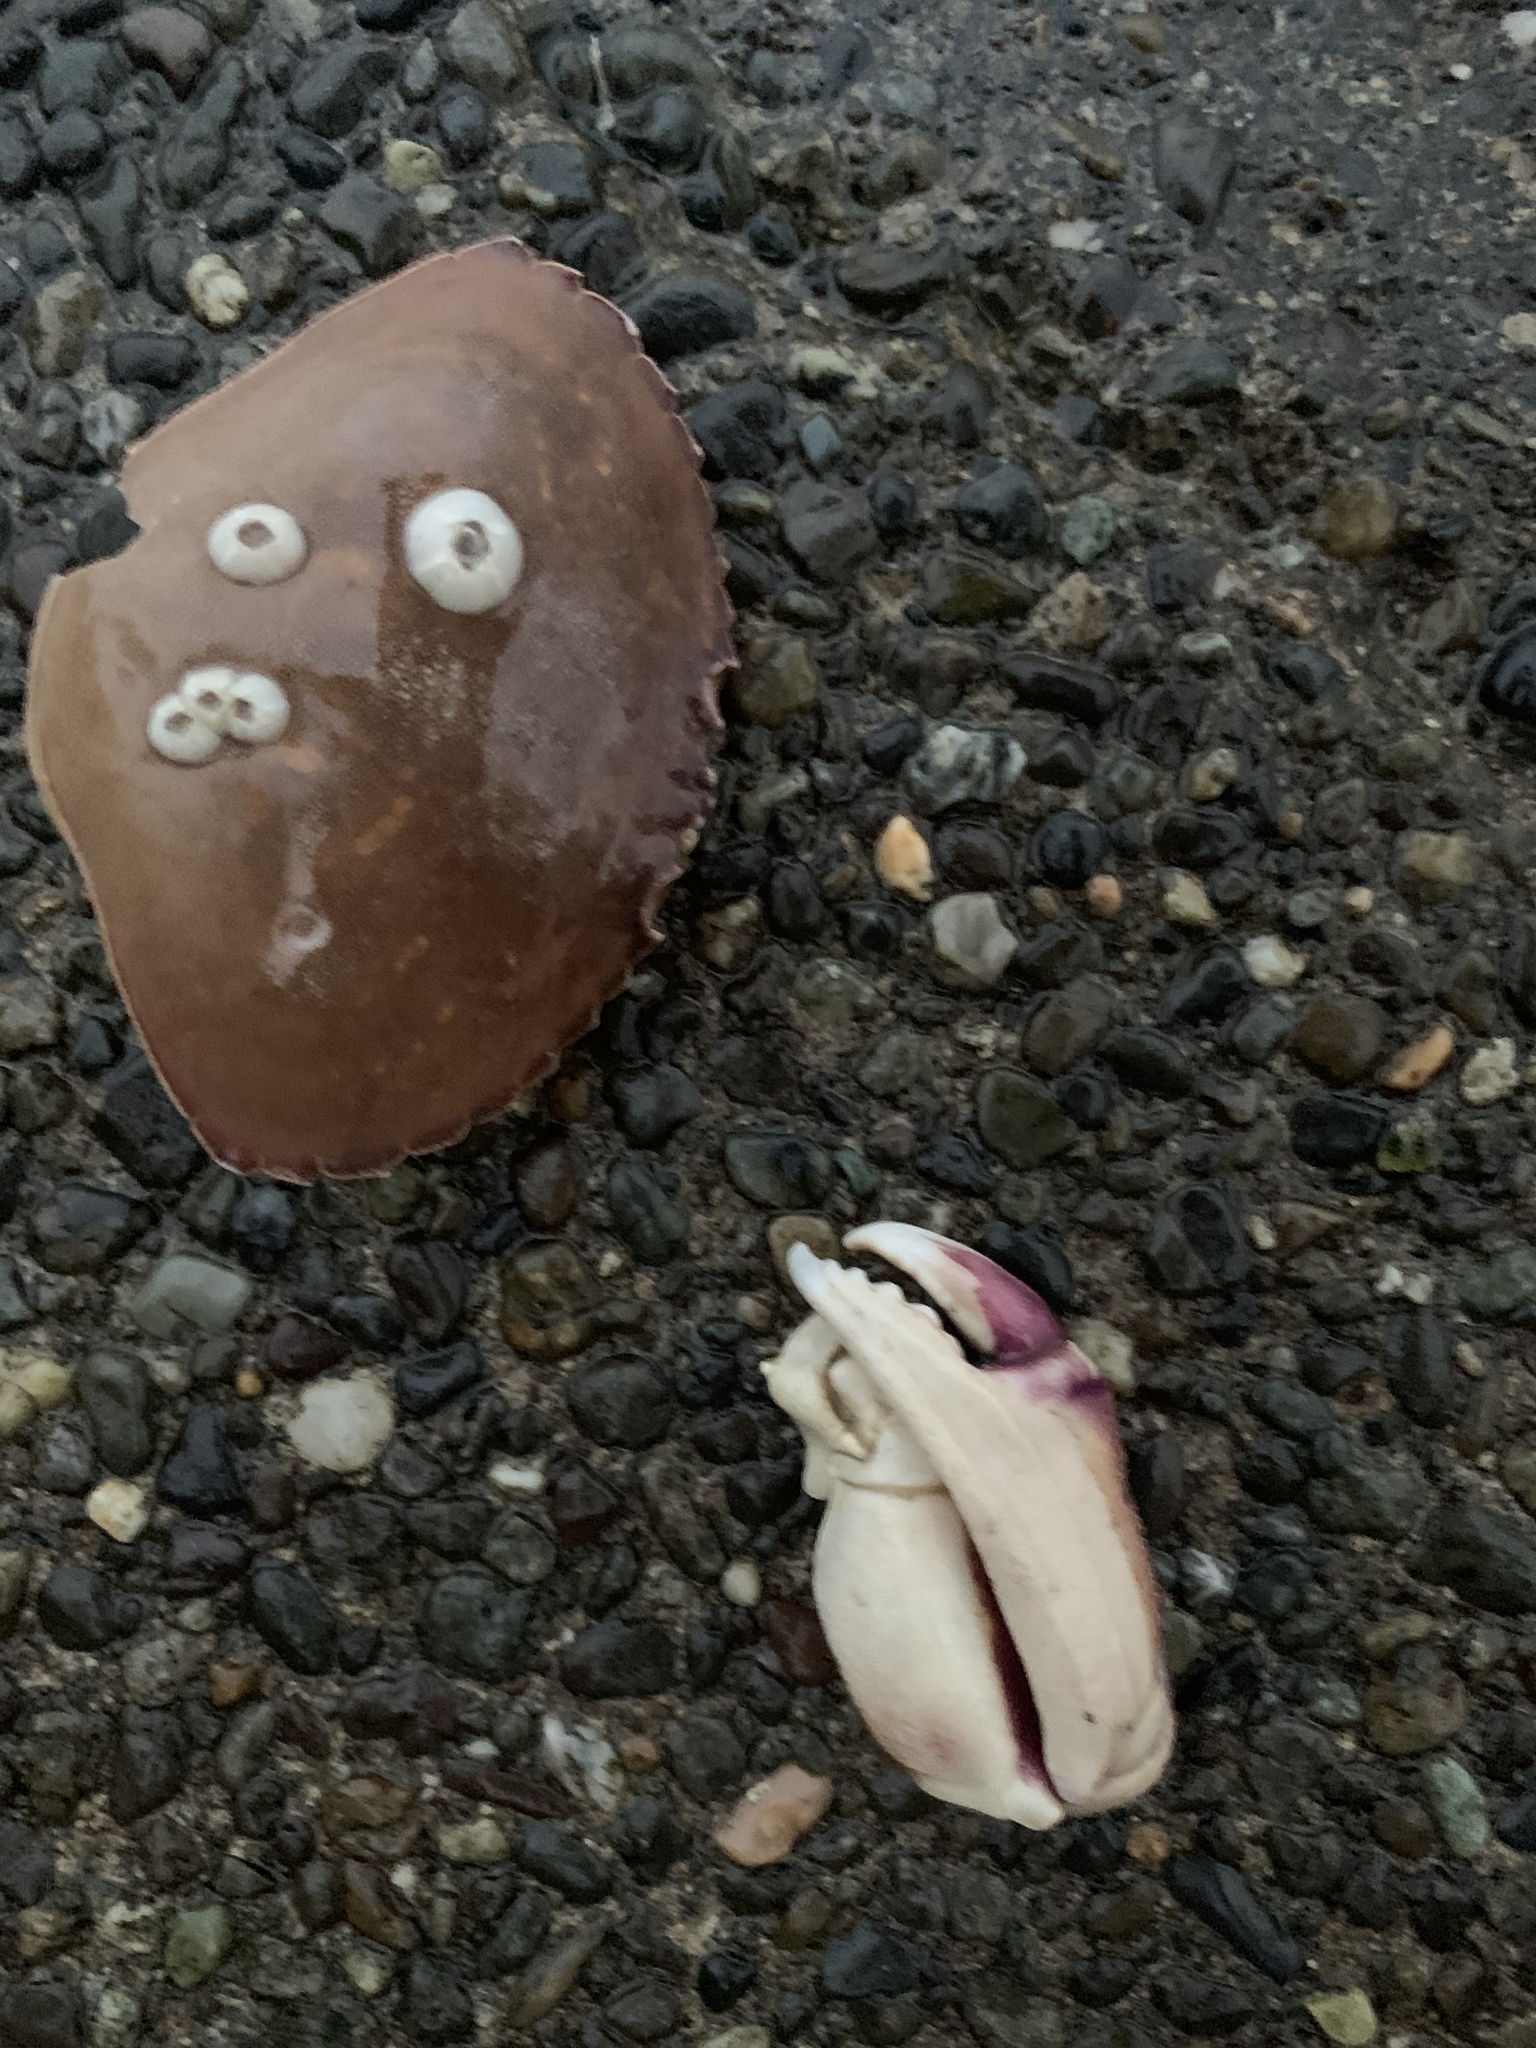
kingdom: Animalia
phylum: Arthropoda
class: Malacostraca
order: Decapoda
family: Cancridae
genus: Metacarcinus
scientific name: Metacarcinus gracilis
